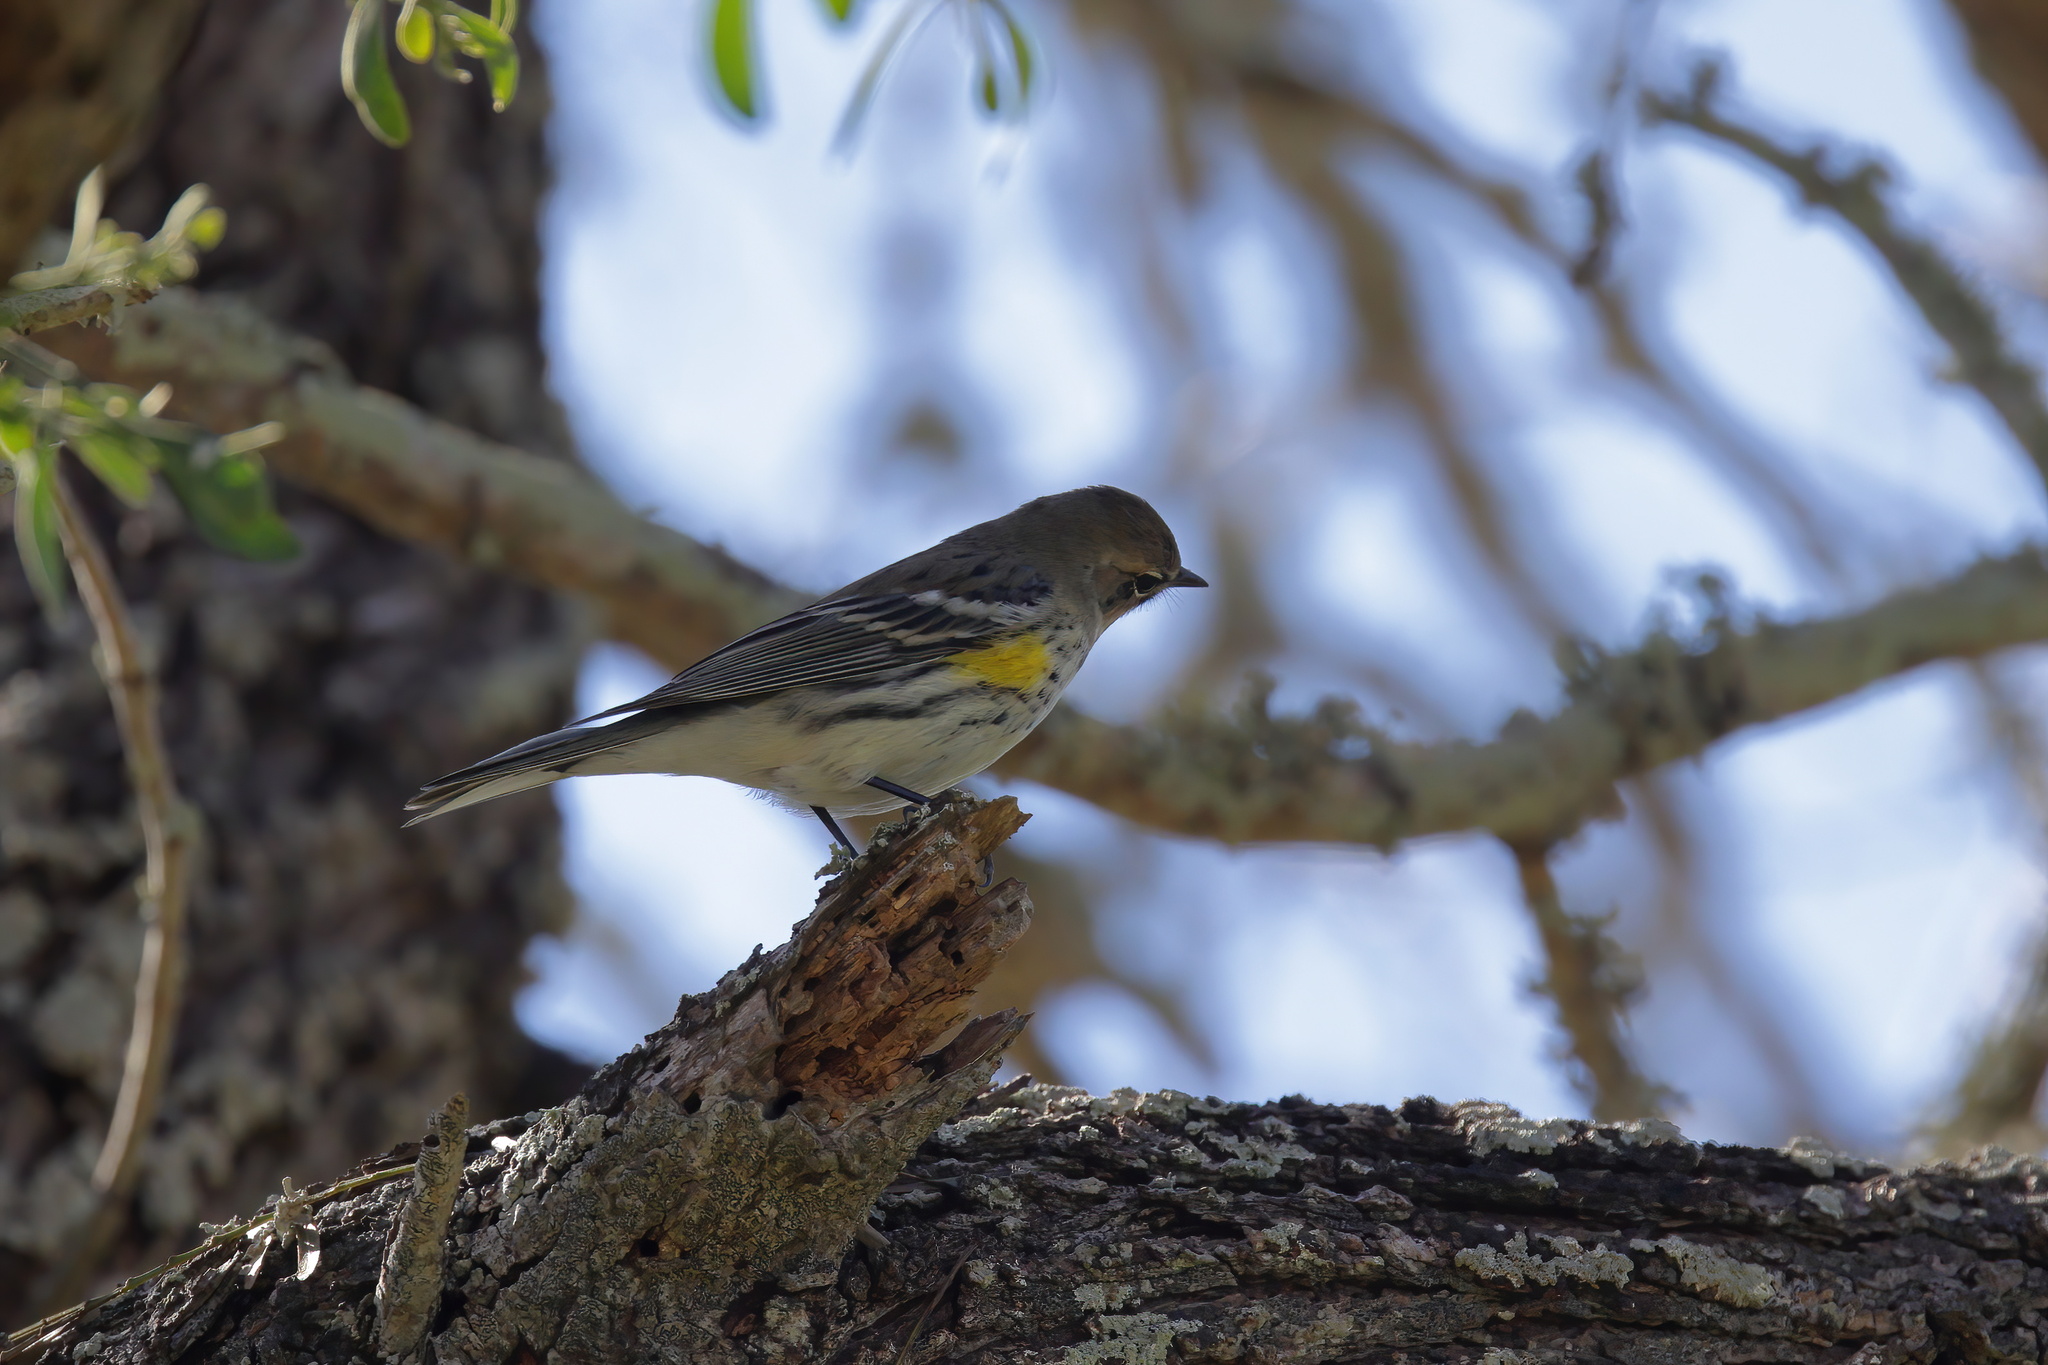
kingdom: Animalia
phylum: Chordata
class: Aves
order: Passeriformes
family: Parulidae
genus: Setophaga
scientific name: Setophaga coronata
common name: Myrtle warbler
